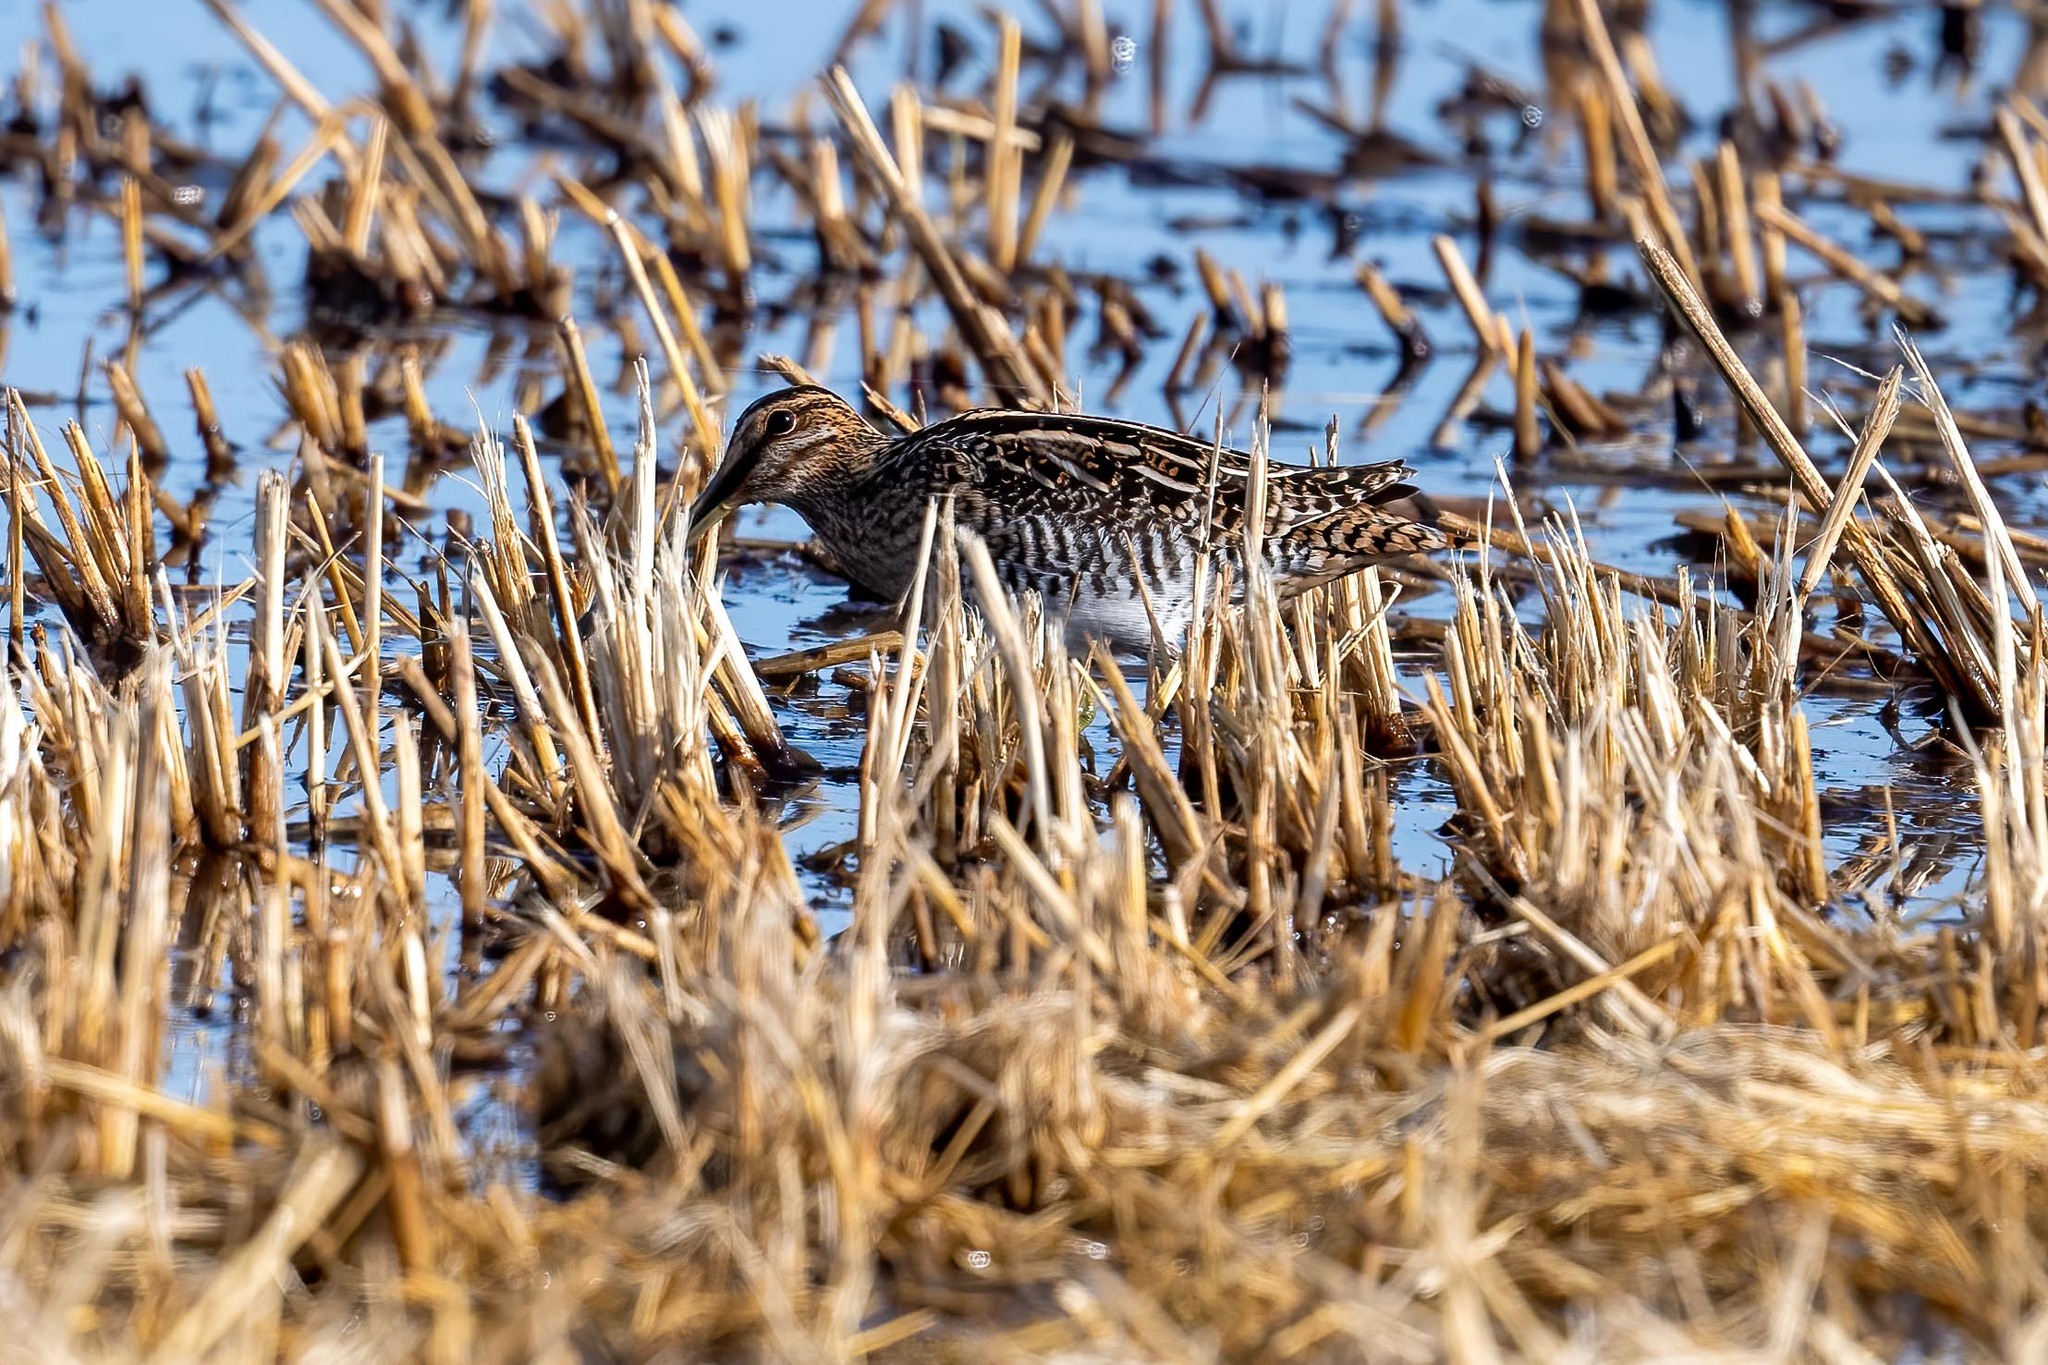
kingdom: Animalia
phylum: Chordata
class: Aves
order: Charadriiformes
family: Scolopacidae
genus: Gallinago
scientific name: Gallinago delicata
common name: Wilson's snipe
